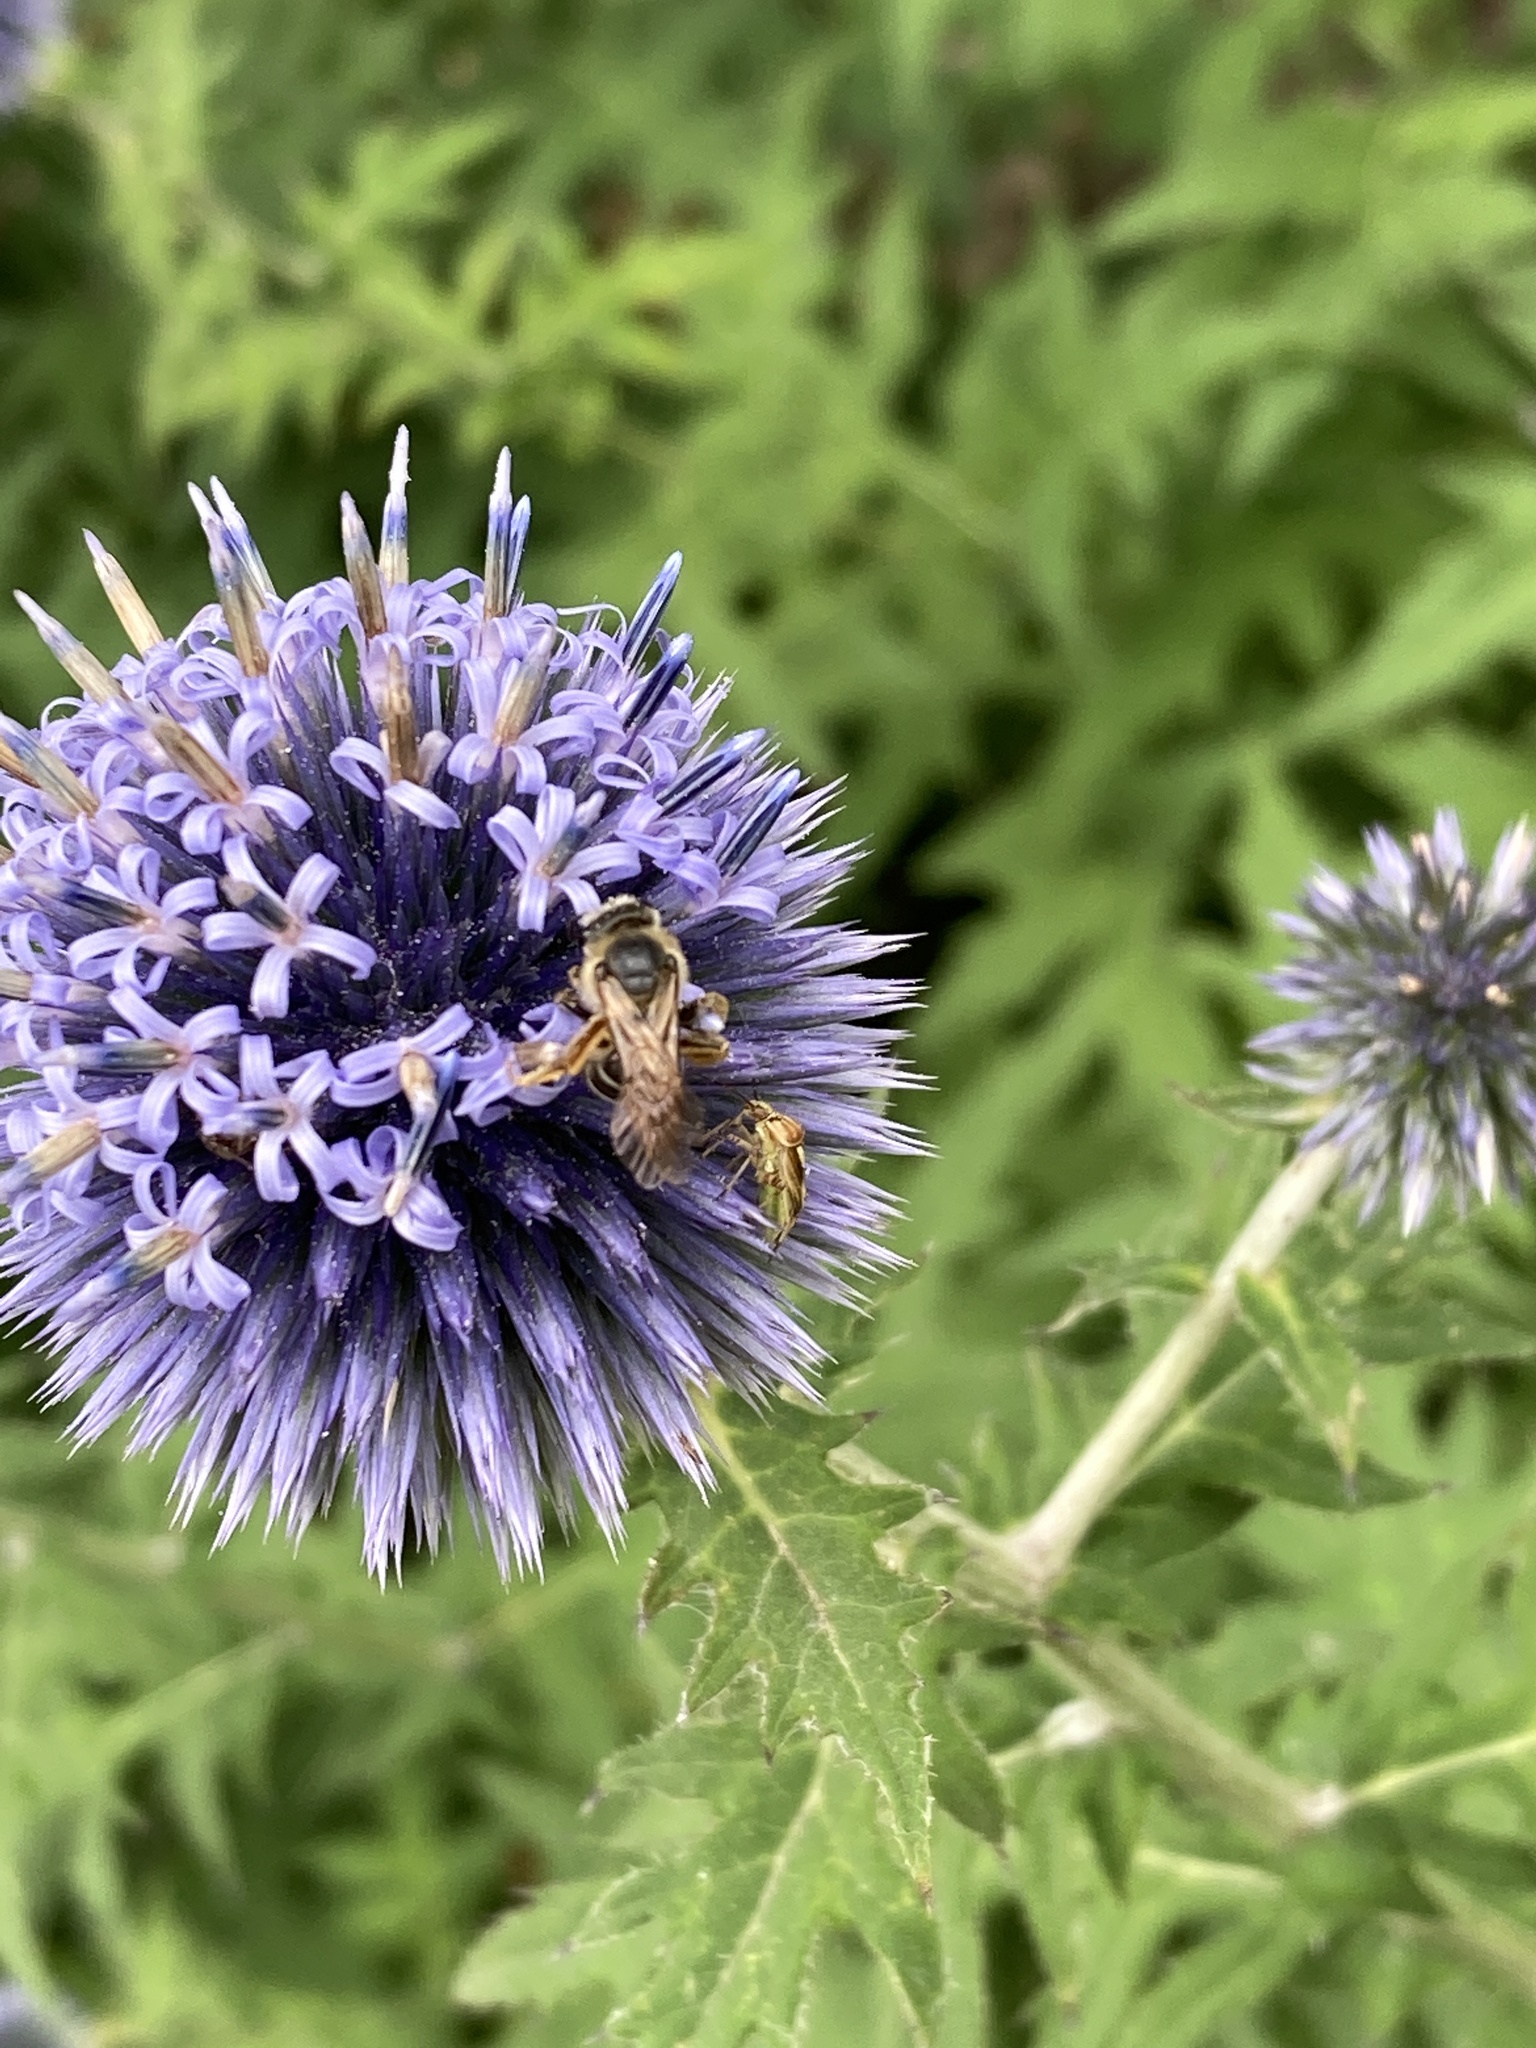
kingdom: Animalia
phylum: Arthropoda
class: Insecta
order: Hymenoptera
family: Halictidae
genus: Halictus
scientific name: Halictus rubicundus
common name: Orange-legged furrow bee
